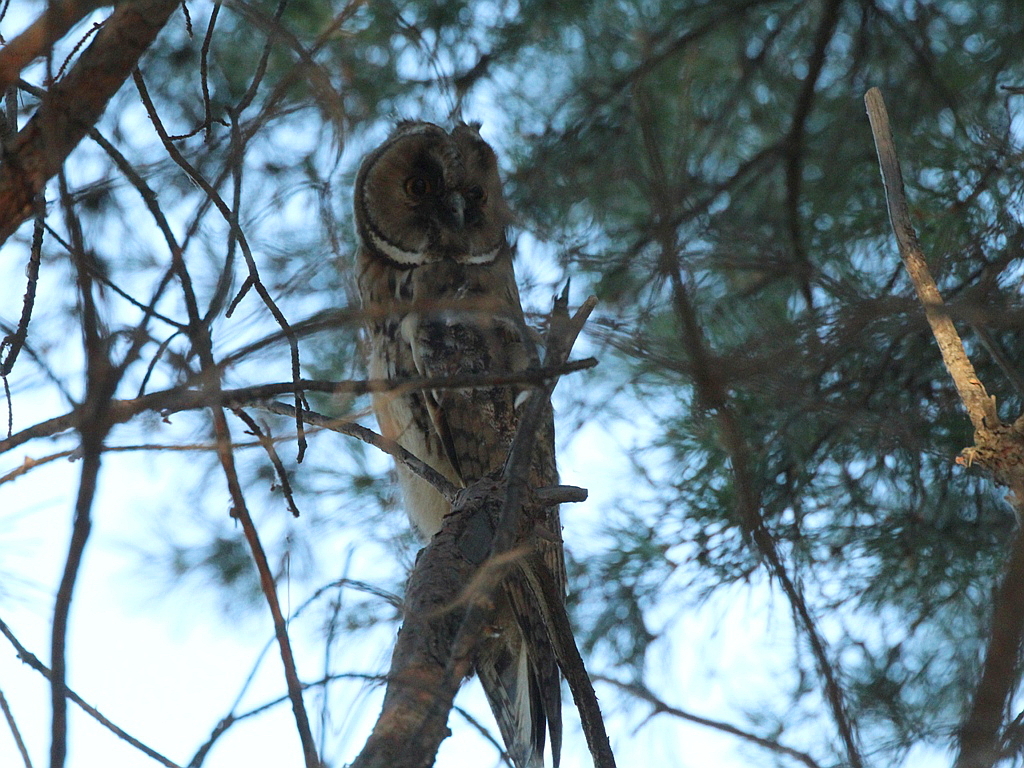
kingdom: Animalia
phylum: Chordata
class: Aves
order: Strigiformes
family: Strigidae
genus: Asio
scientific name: Asio otus
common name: Long-eared owl
